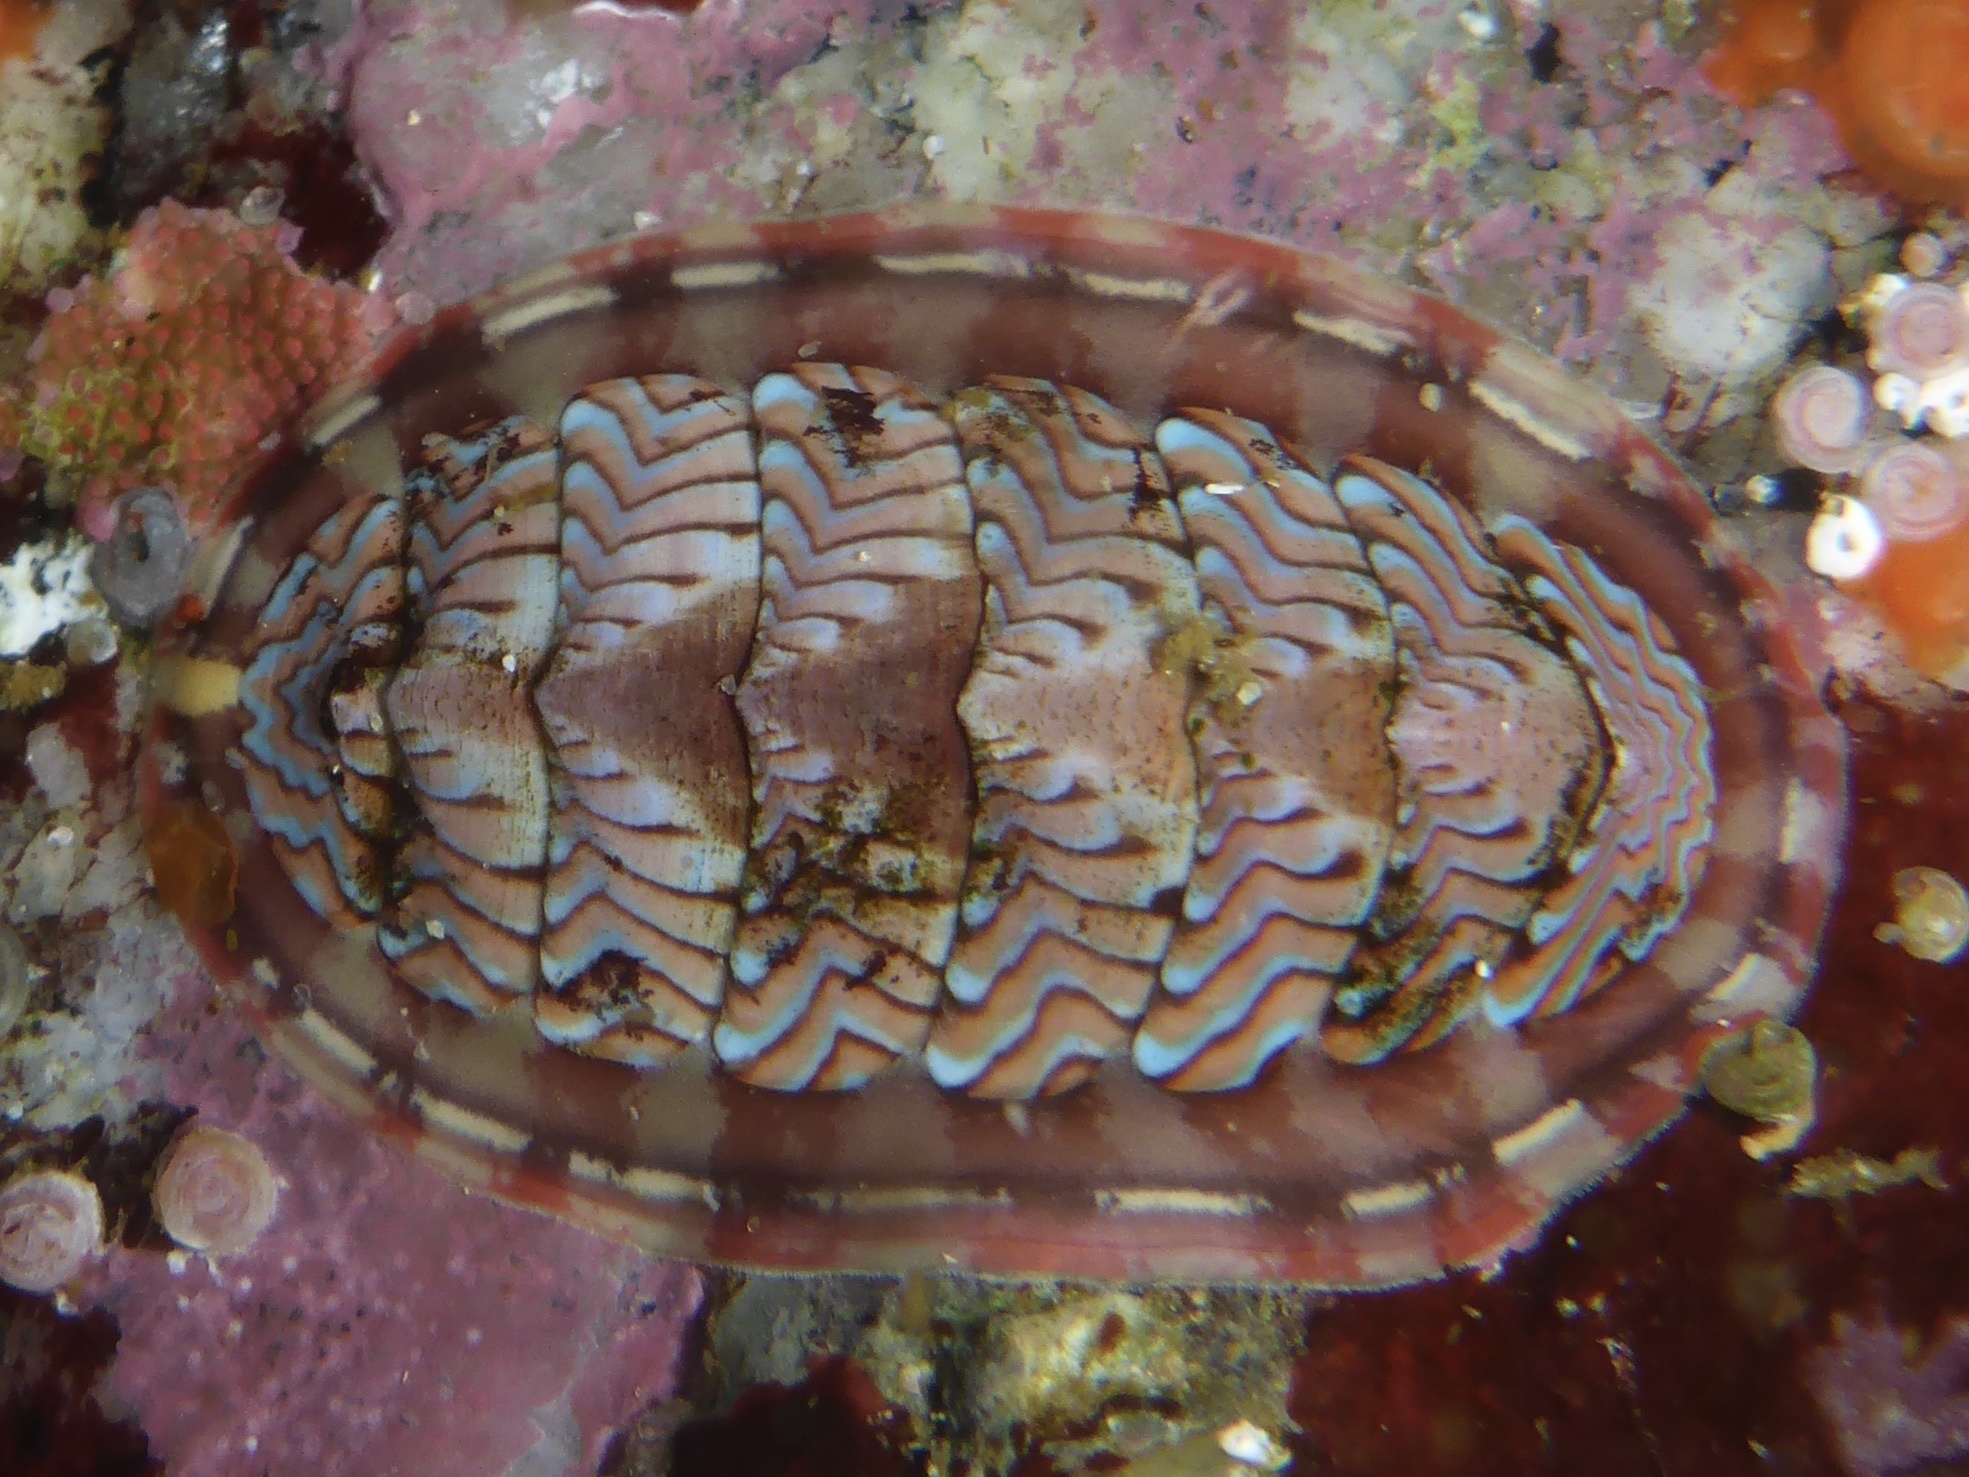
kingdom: Animalia
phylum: Mollusca
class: Polyplacophora
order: Chitonida
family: Tonicellidae
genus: Tonicella
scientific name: Tonicella lokii
